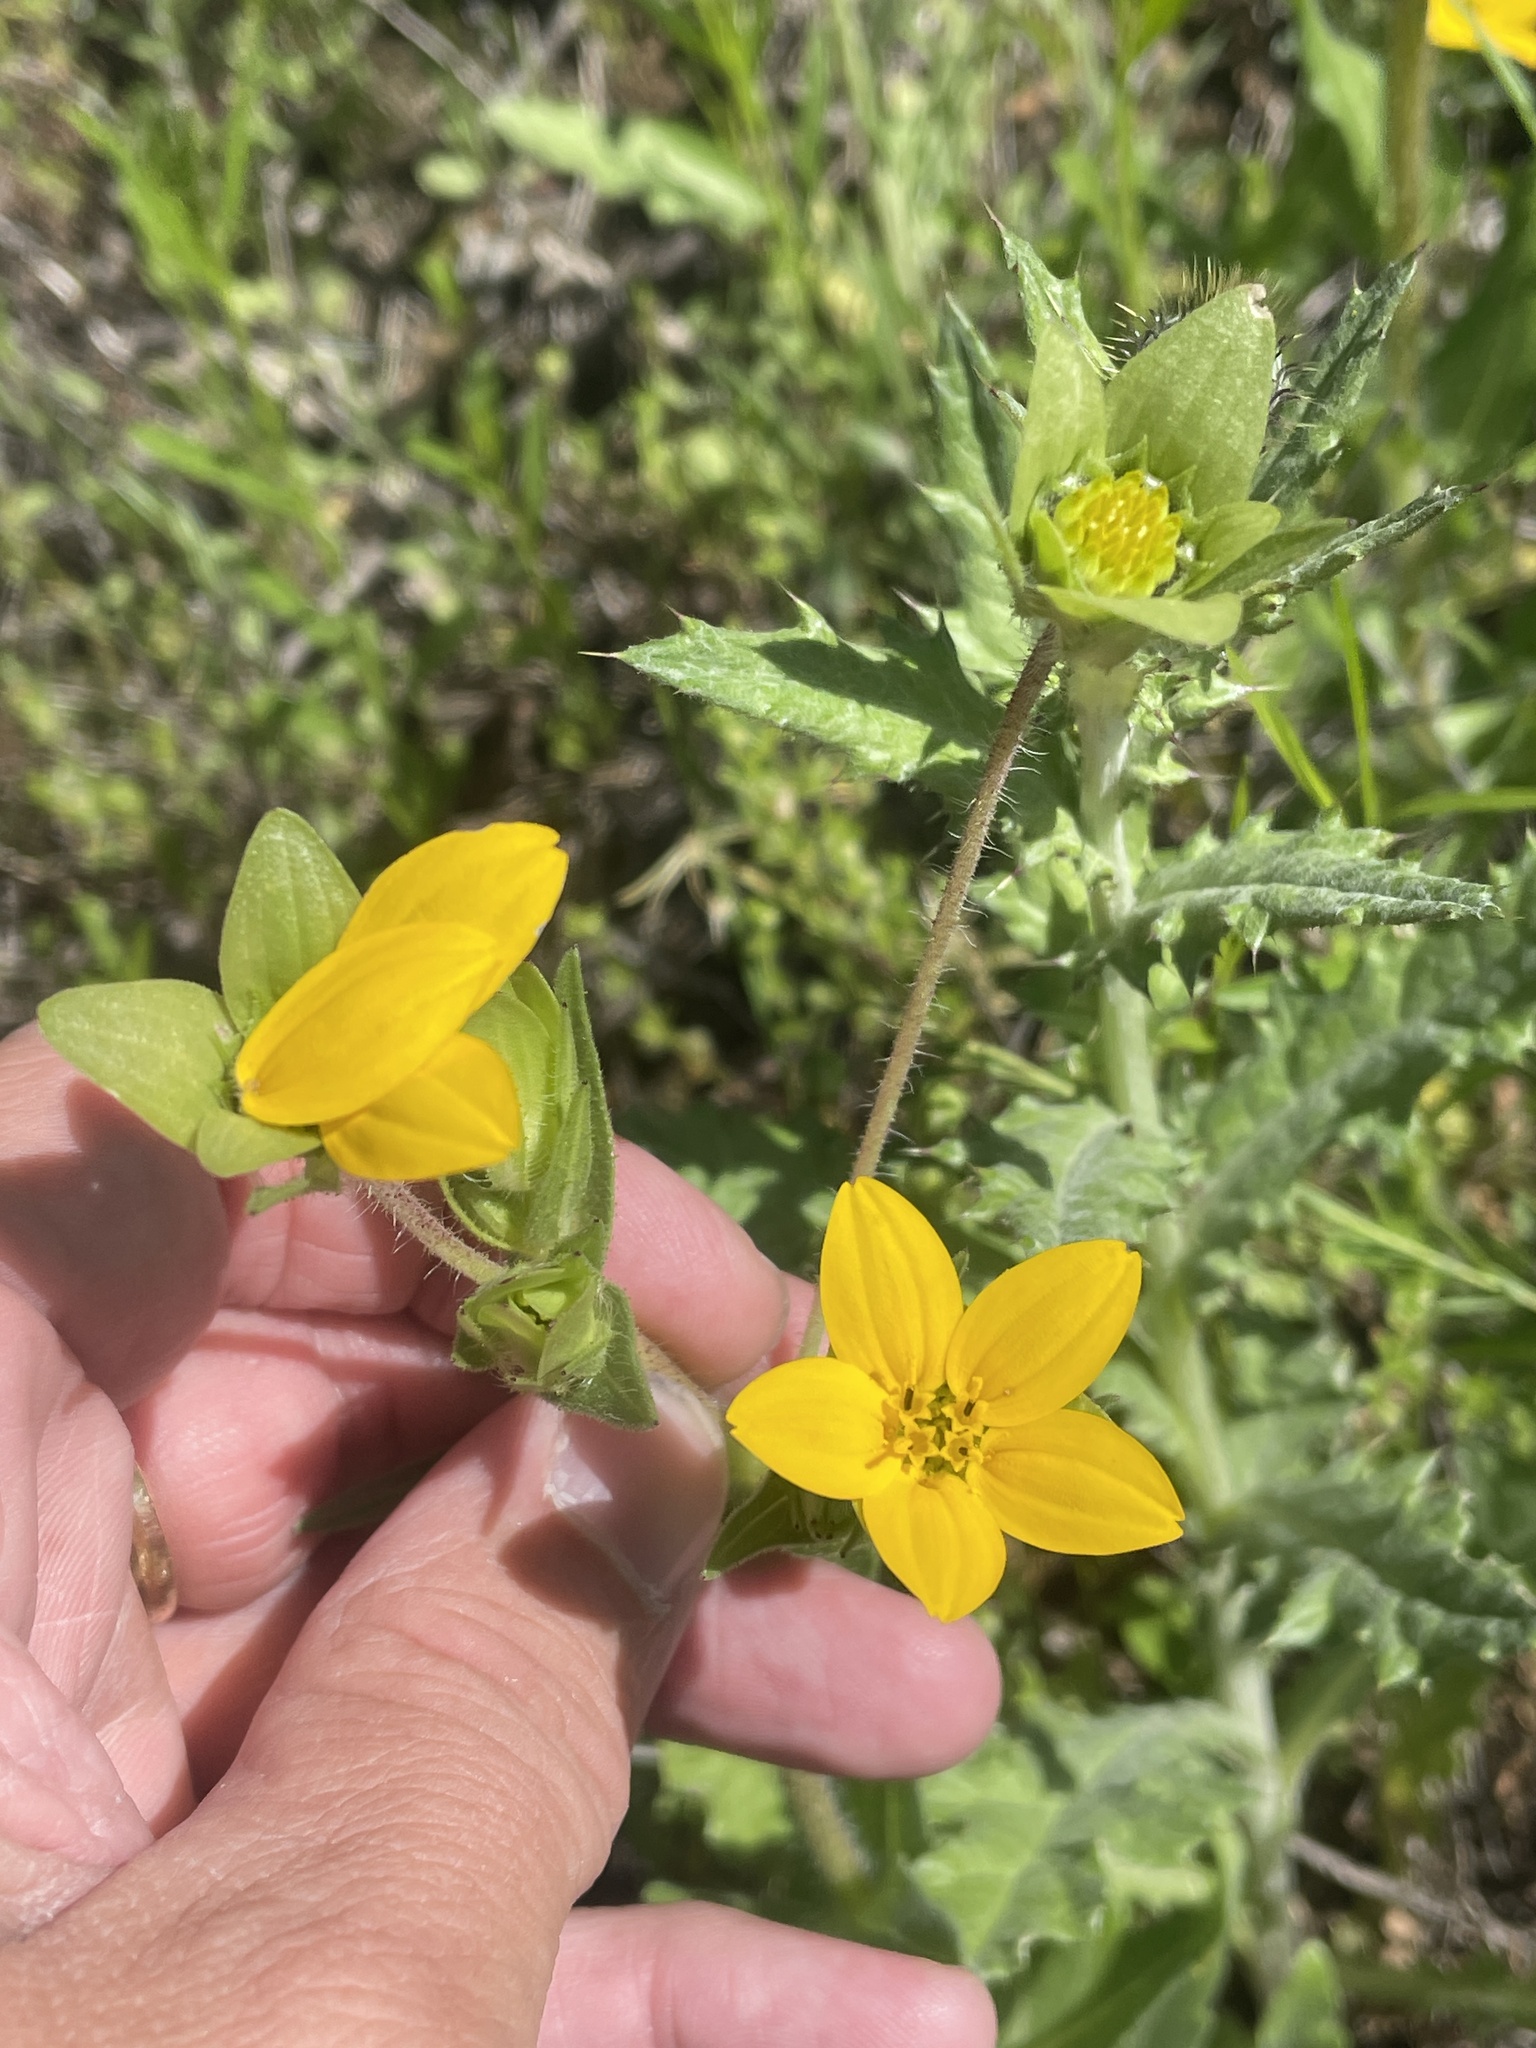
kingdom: Plantae
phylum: Tracheophyta
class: Magnoliopsida
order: Asterales
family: Asteraceae
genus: Lindheimera
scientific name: Lindheimera texana
